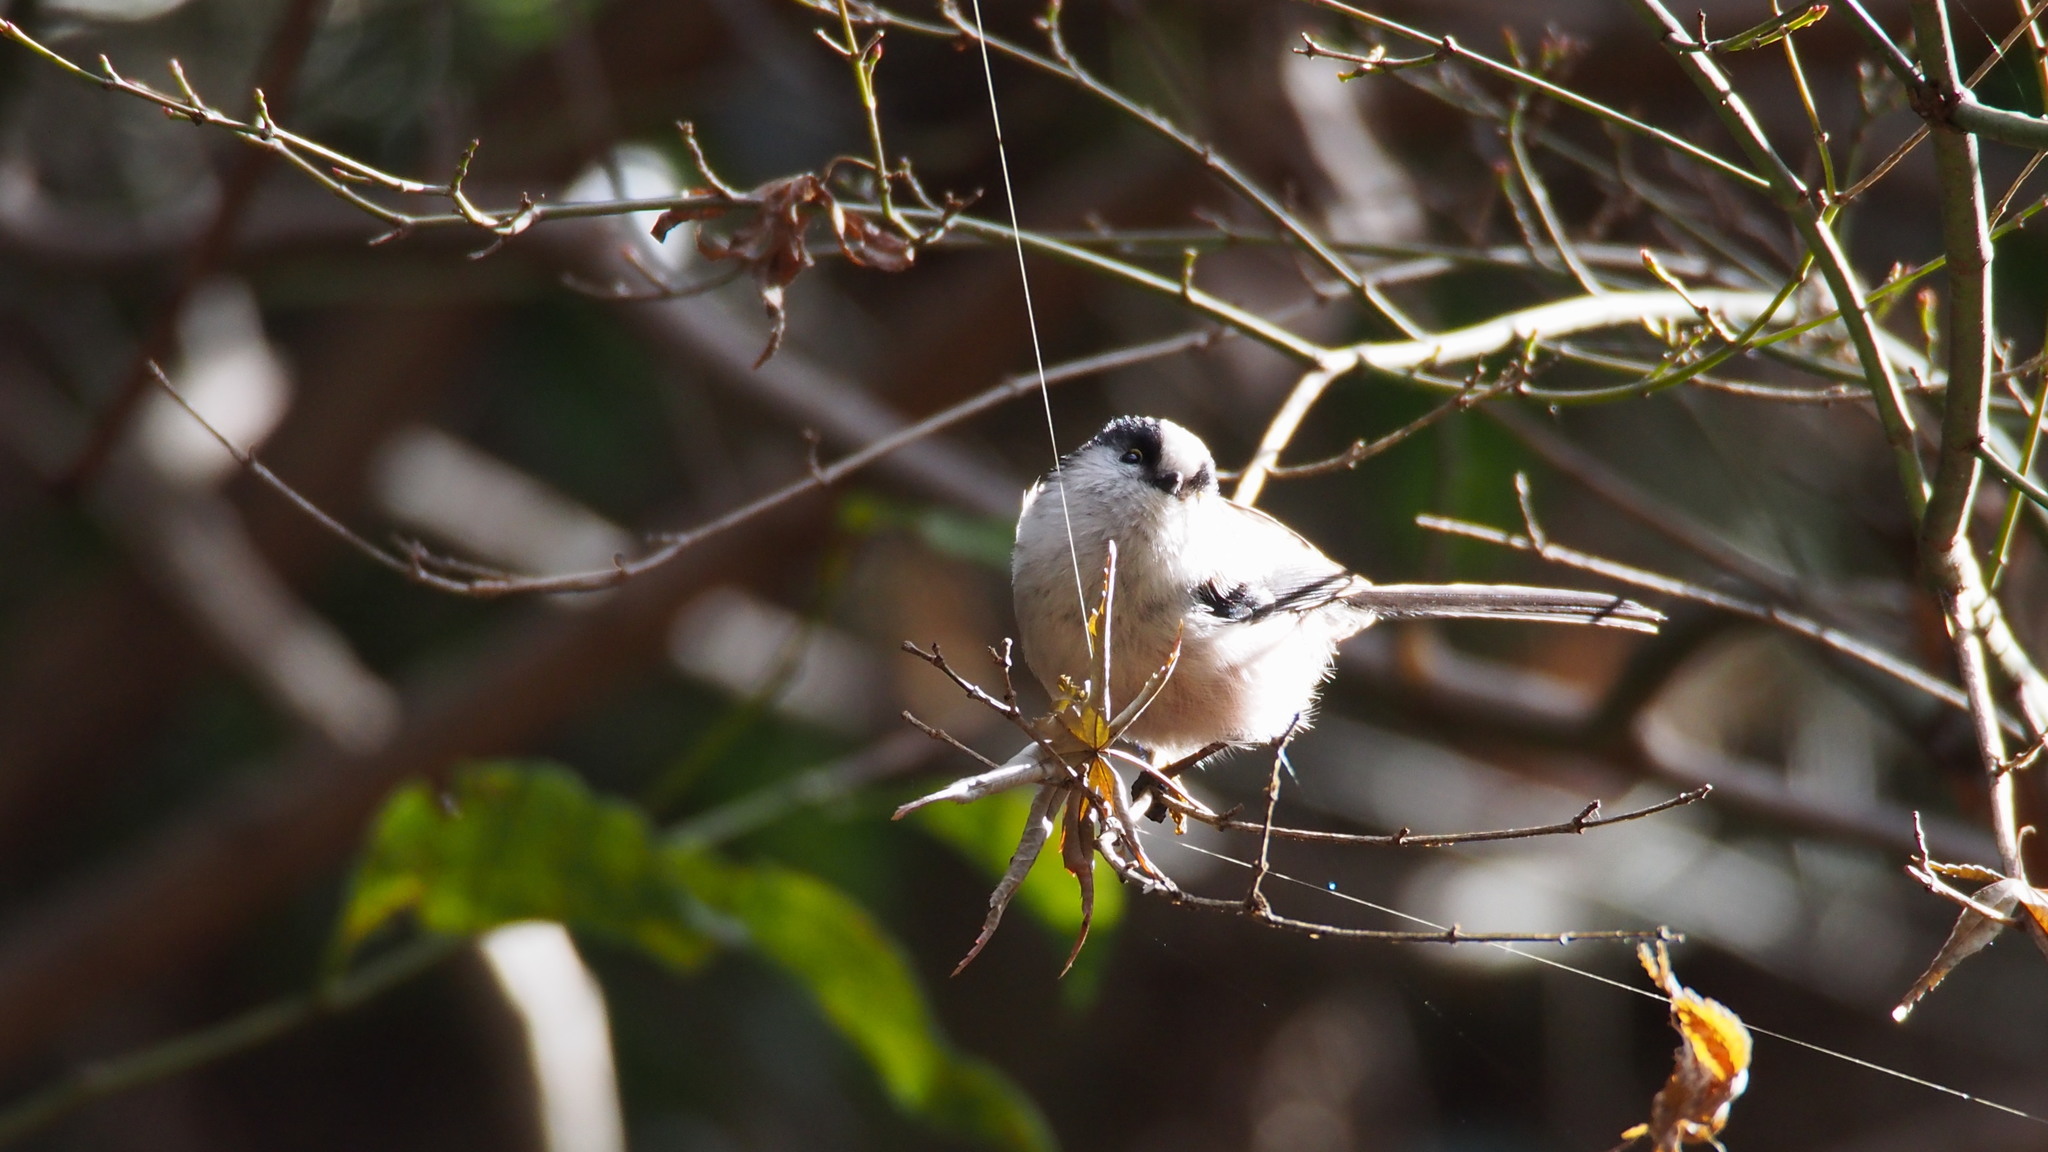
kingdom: Animalia
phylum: Chordata
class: Aves
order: Passeriformes
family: Aegithalidae
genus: Aegithalos
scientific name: Aegithalos caudatus
